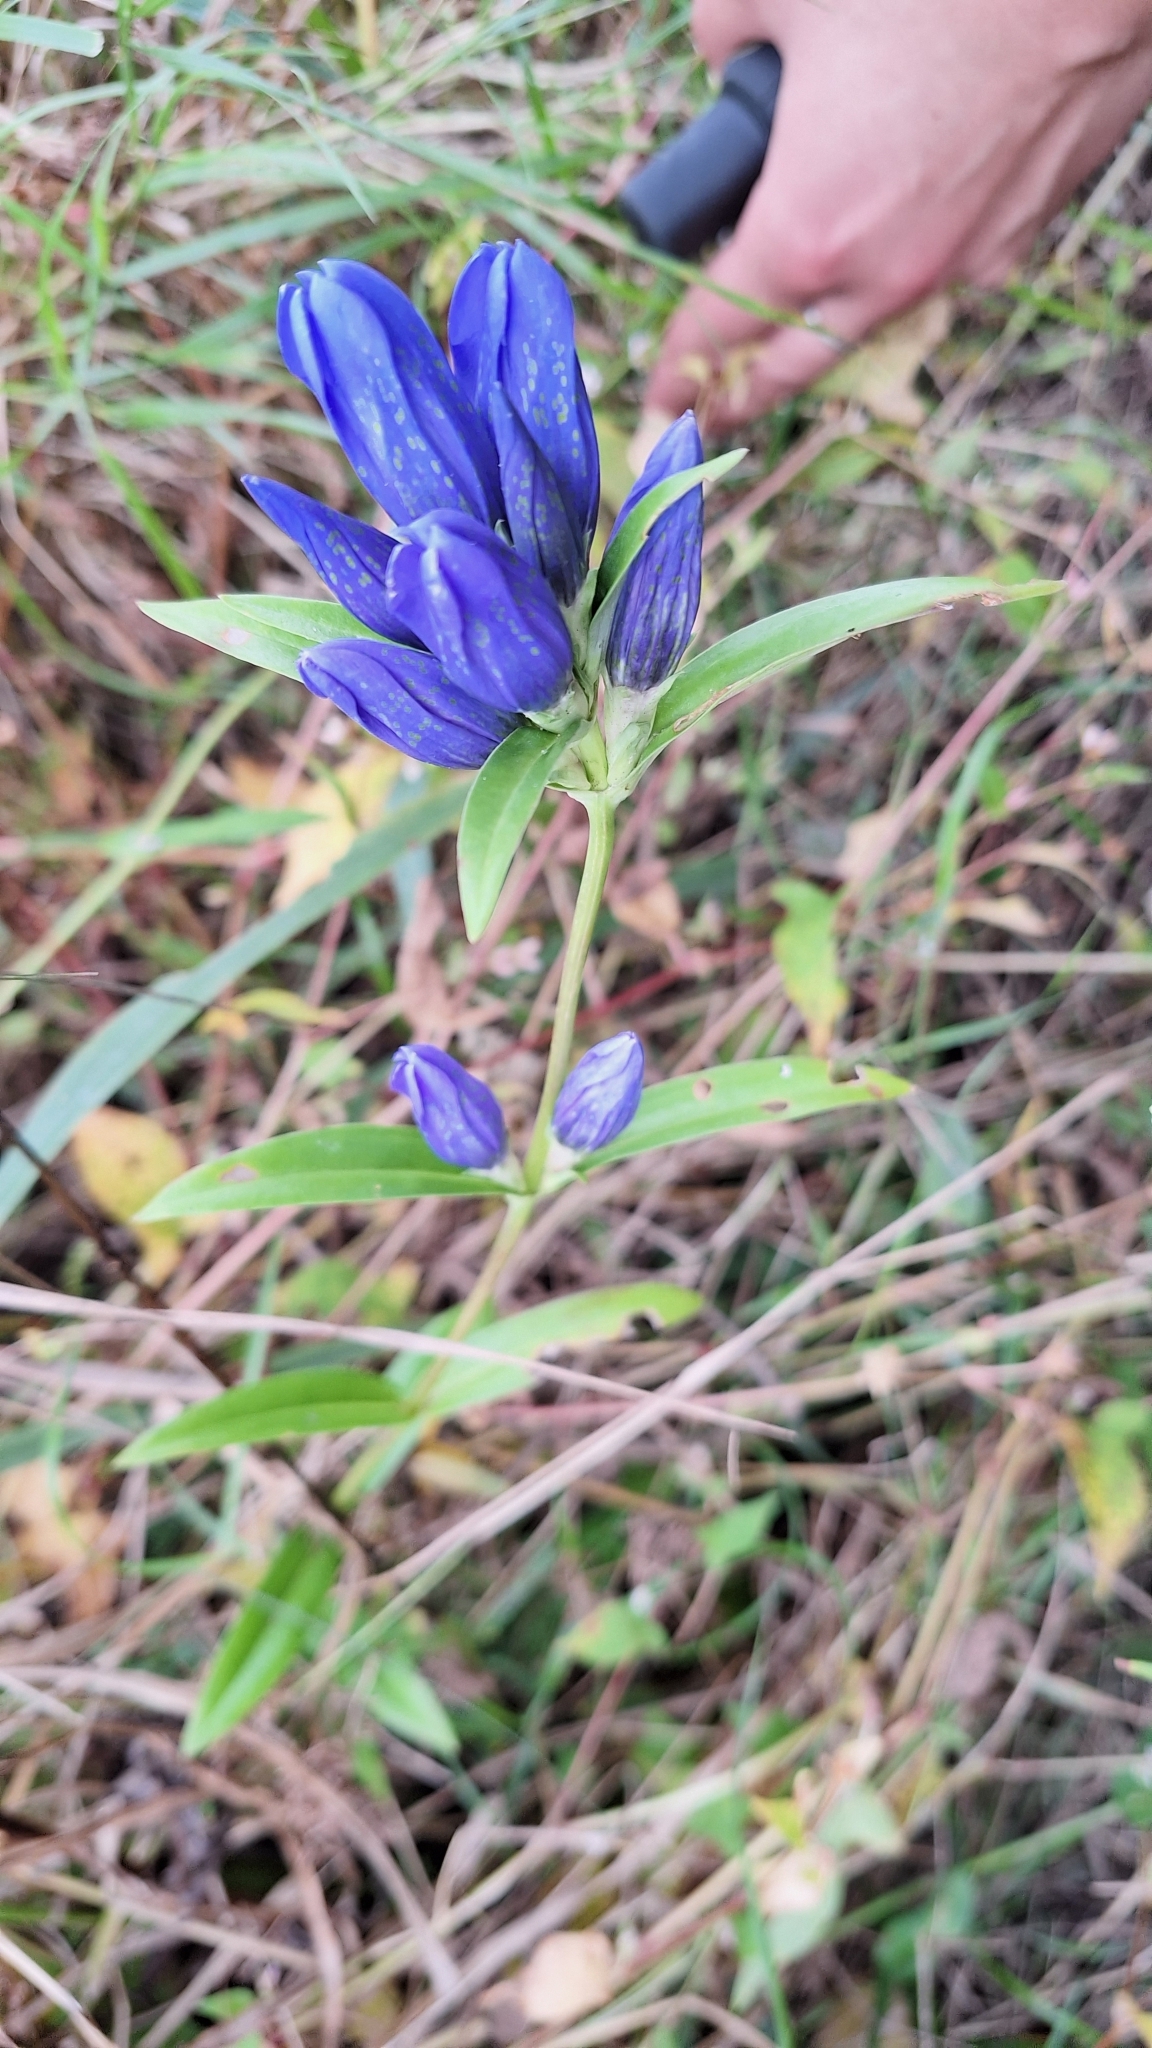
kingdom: Plantae
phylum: Tracheophyta
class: Magnoliopsida
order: Gentianales
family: Gentianaceae
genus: Gentiana
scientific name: Gentiana triflora
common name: Three-flower gentian
